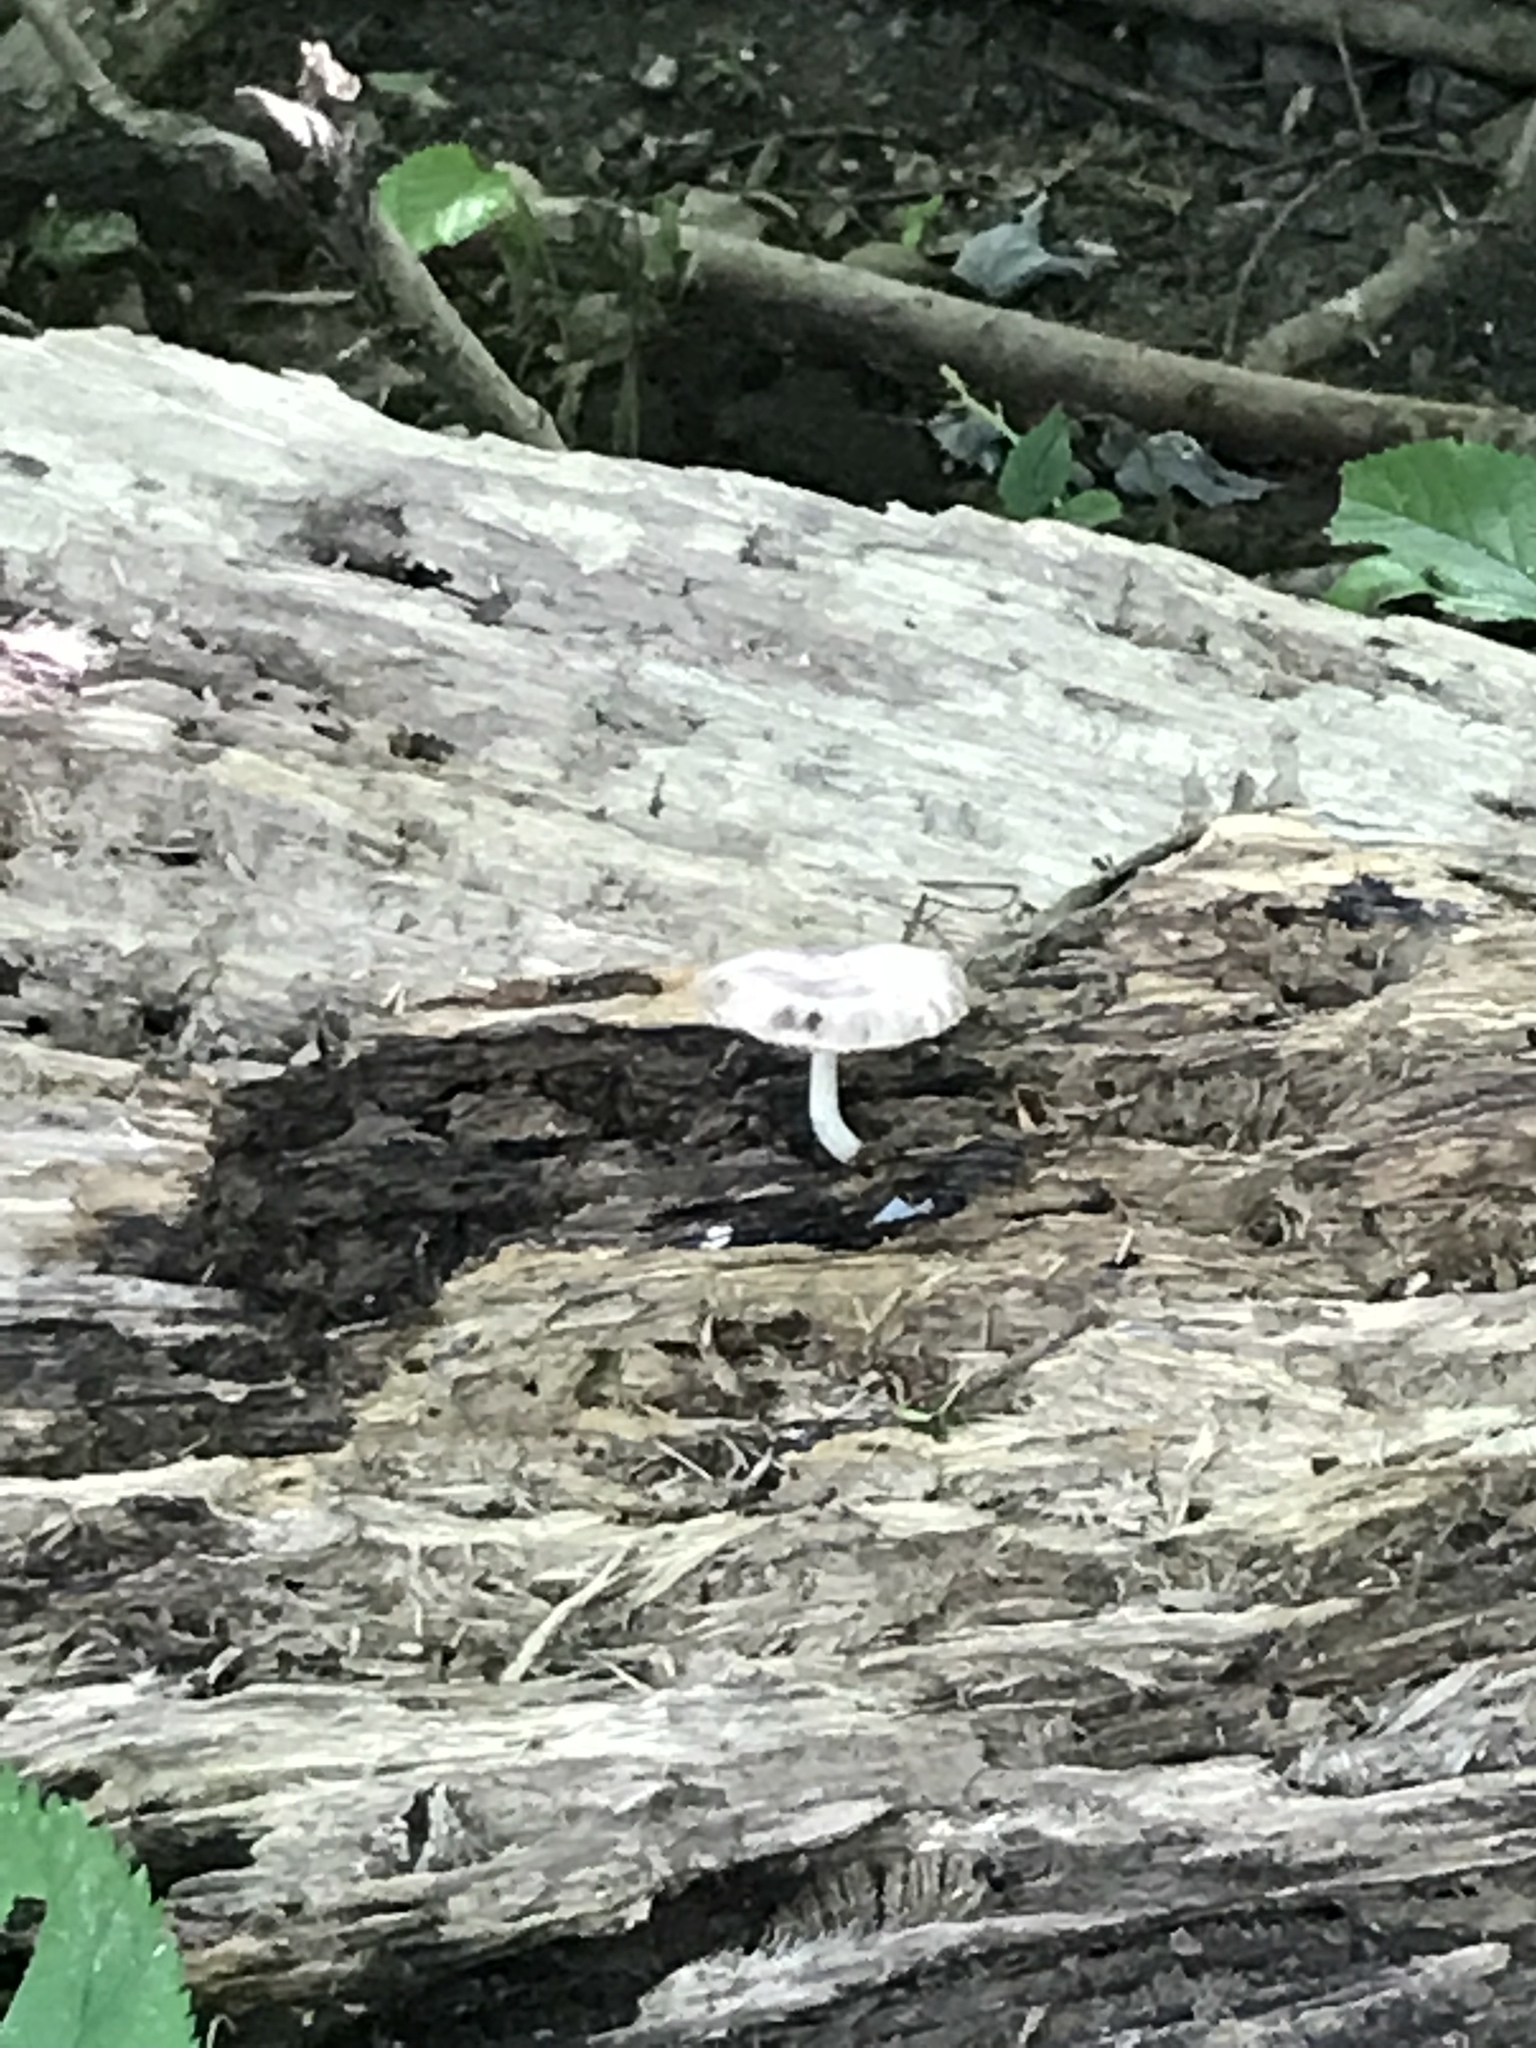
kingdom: Fungi
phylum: Basidiomycota
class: Agaricomycetes
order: Agaricales
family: Pluteaceae
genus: Pluteus
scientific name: Pluteus cervinus
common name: Deer shield
